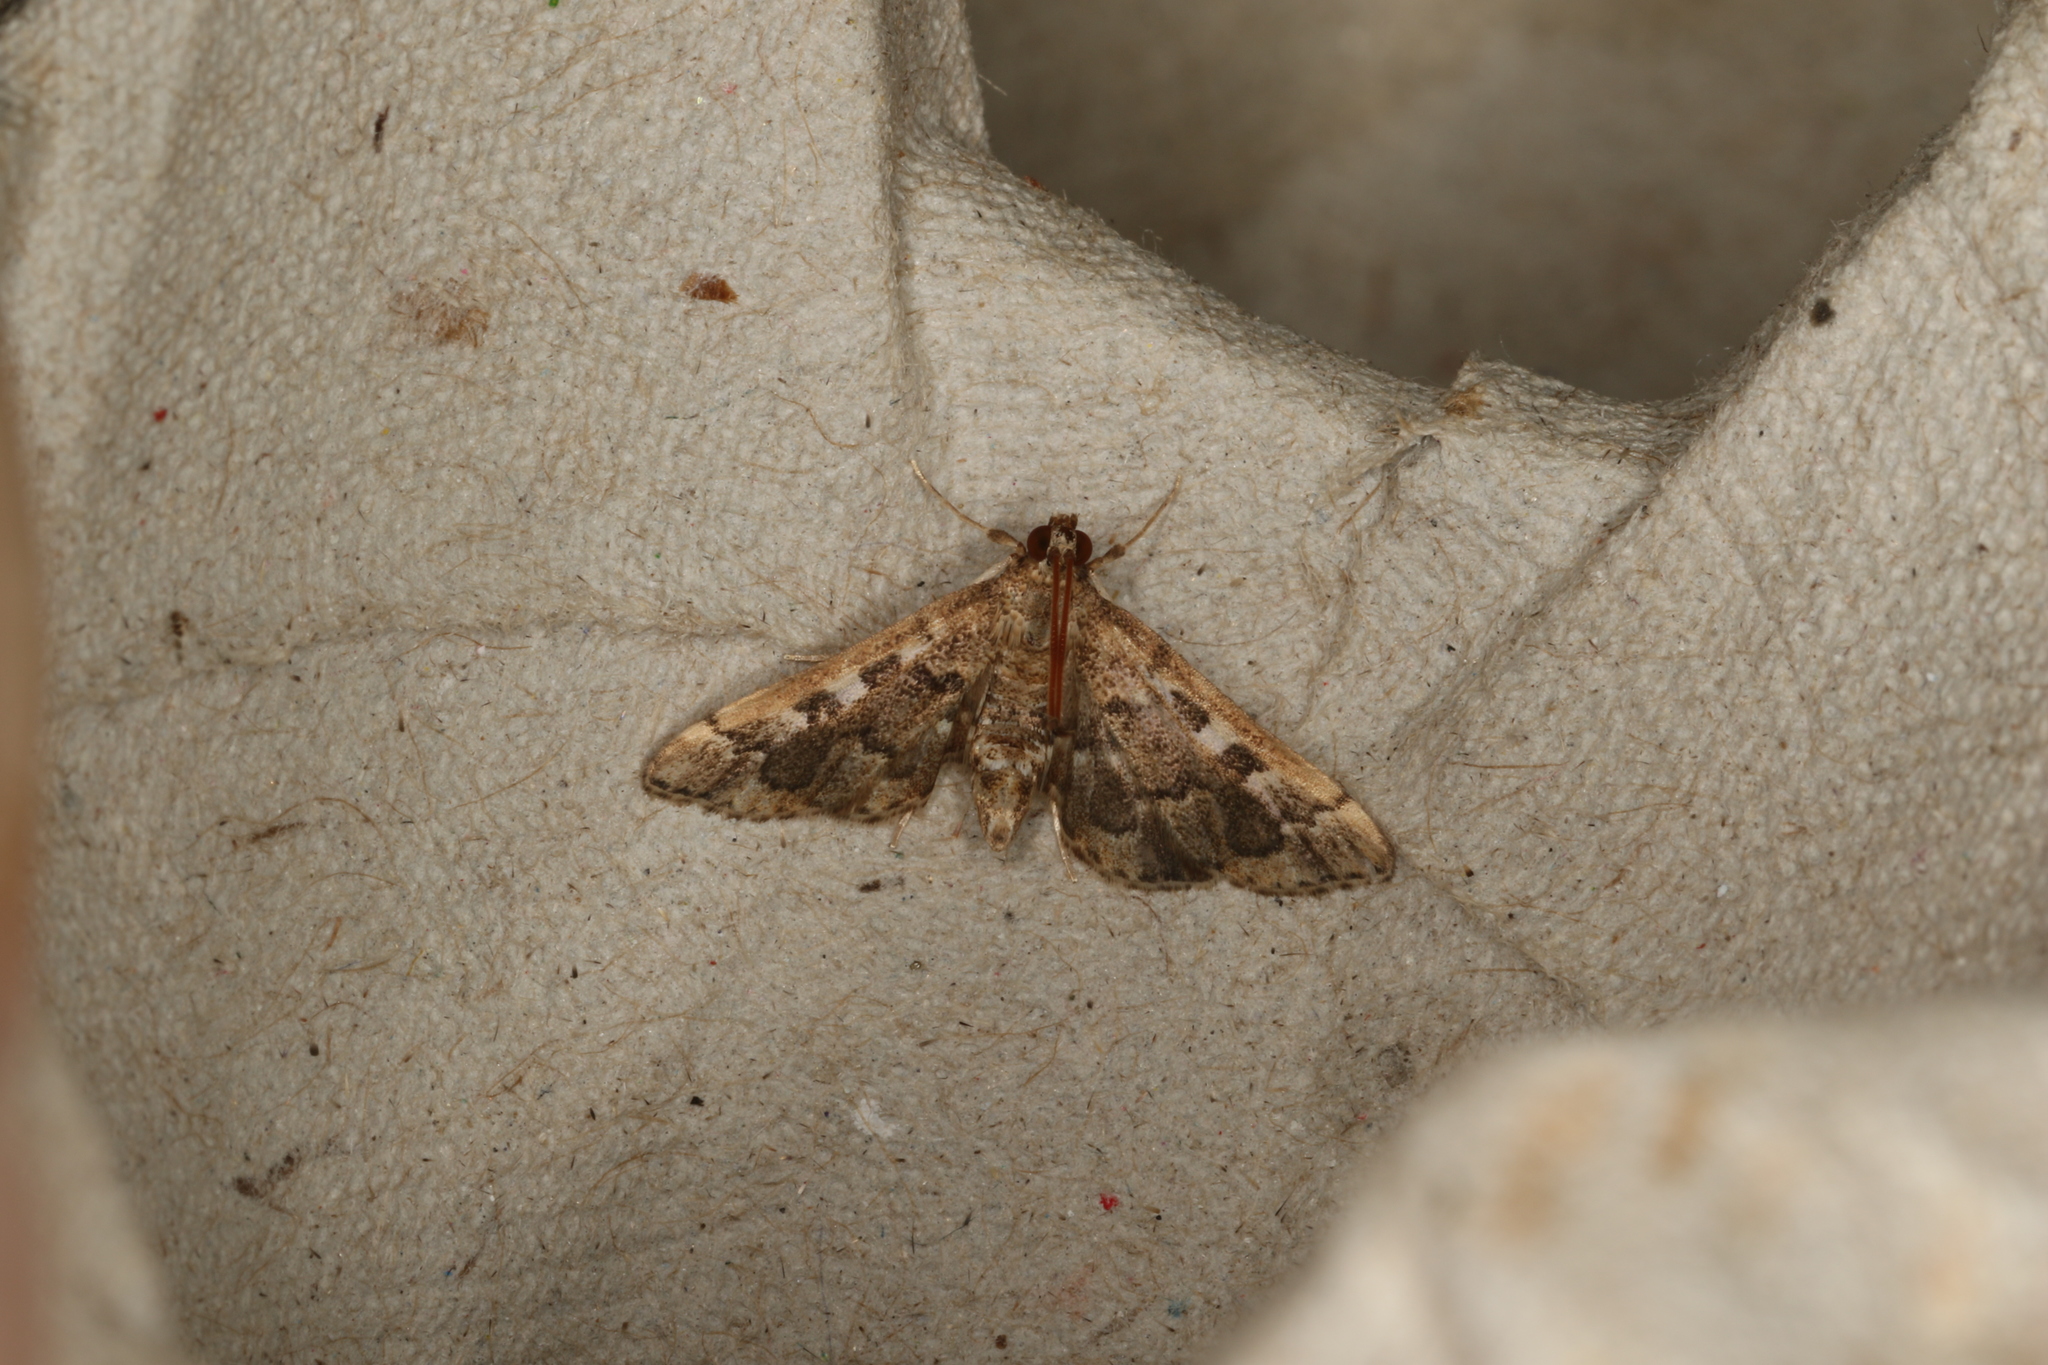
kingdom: Animalia
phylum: Arthropoda
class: Insecta
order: Lepidoptera
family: Crambidae
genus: Nacoleia
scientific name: Nacoleia rhoeoalis
